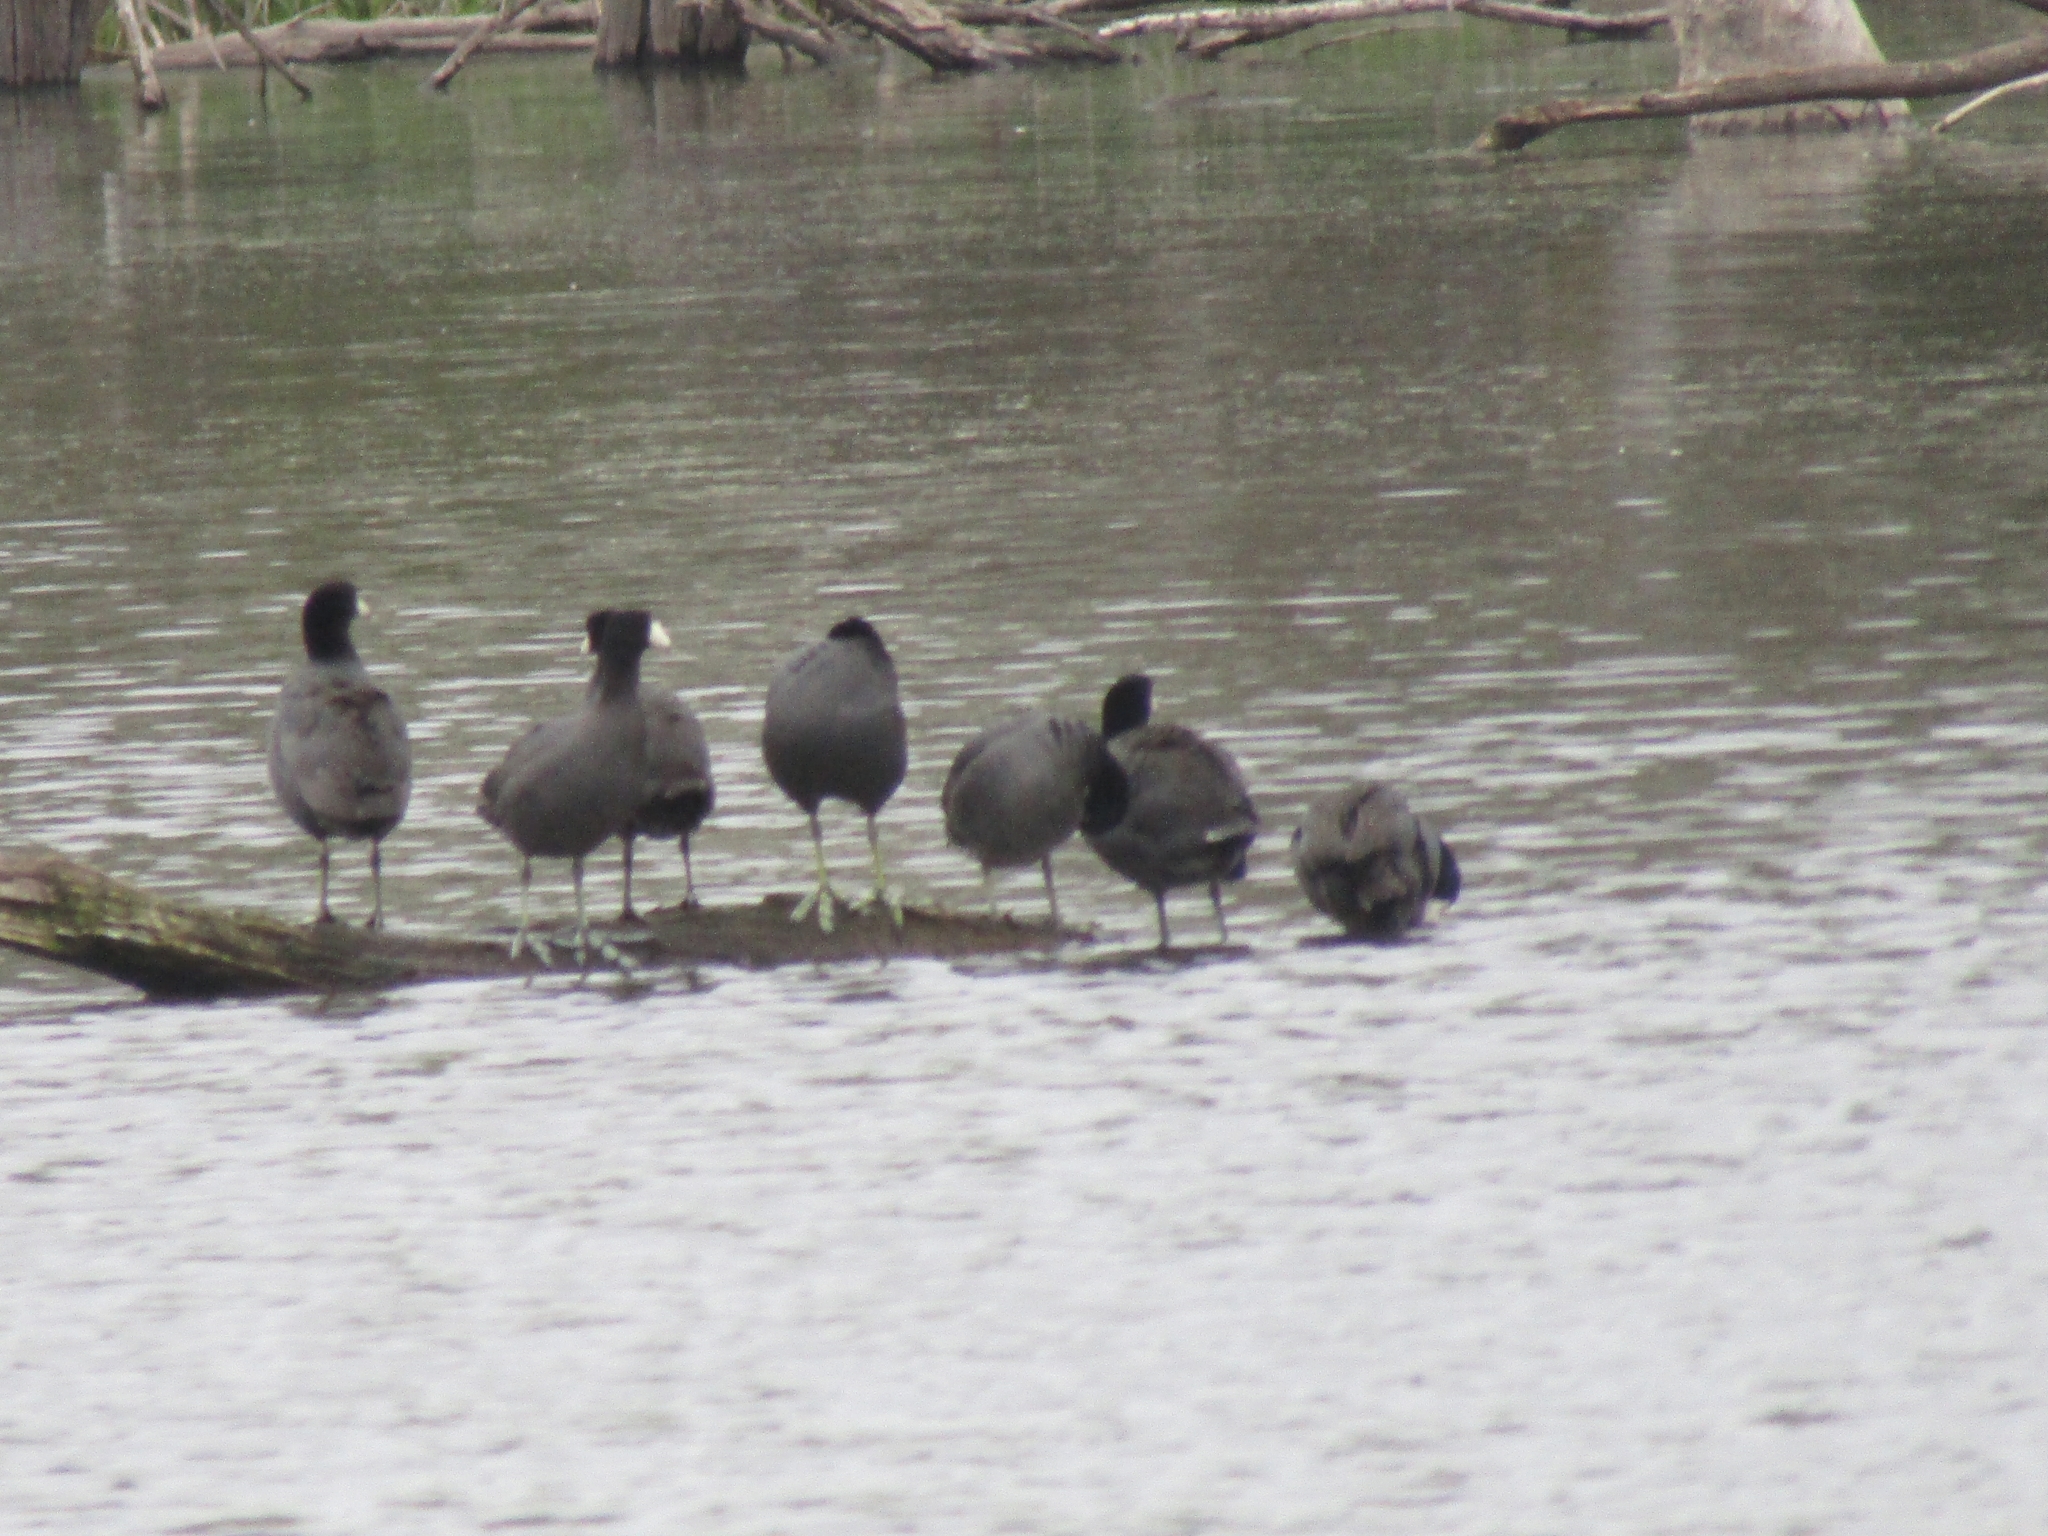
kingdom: Animalia
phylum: Chordata
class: Aves
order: Gruiformes
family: Rallidae
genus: Fulica
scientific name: Fulica americana
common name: American coot
